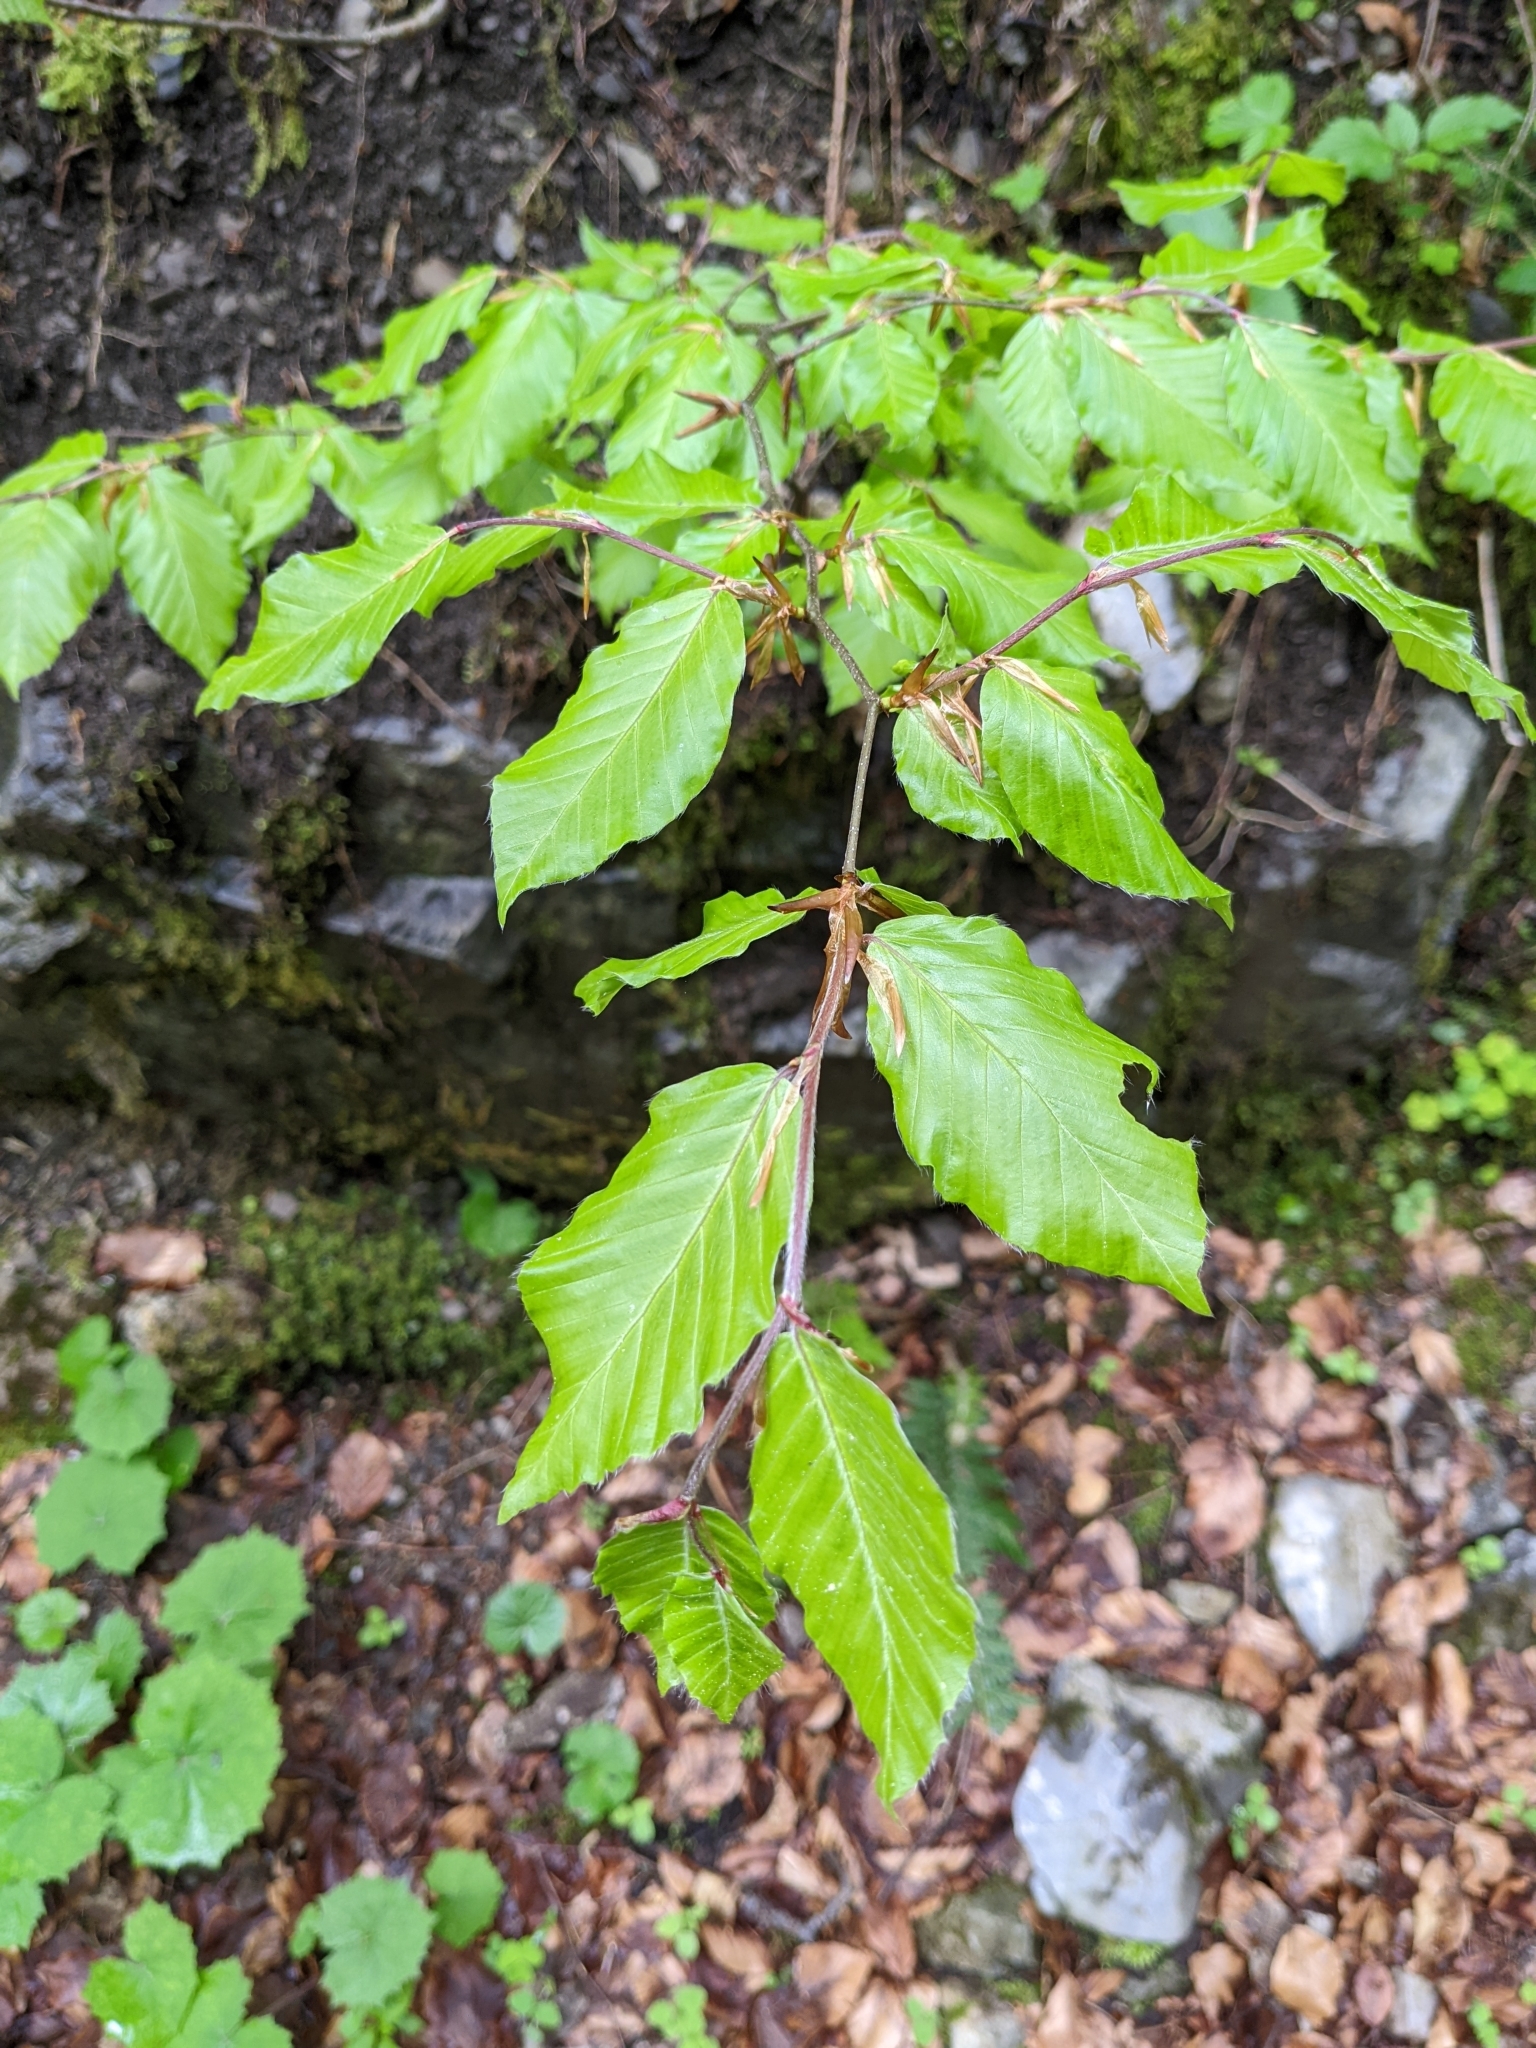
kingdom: Plantae
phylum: Tracheophyta
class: Magnoliopsida
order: Fagales
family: Fagaceae
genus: Fagus
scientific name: Fagus sylvatica
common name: Beech
